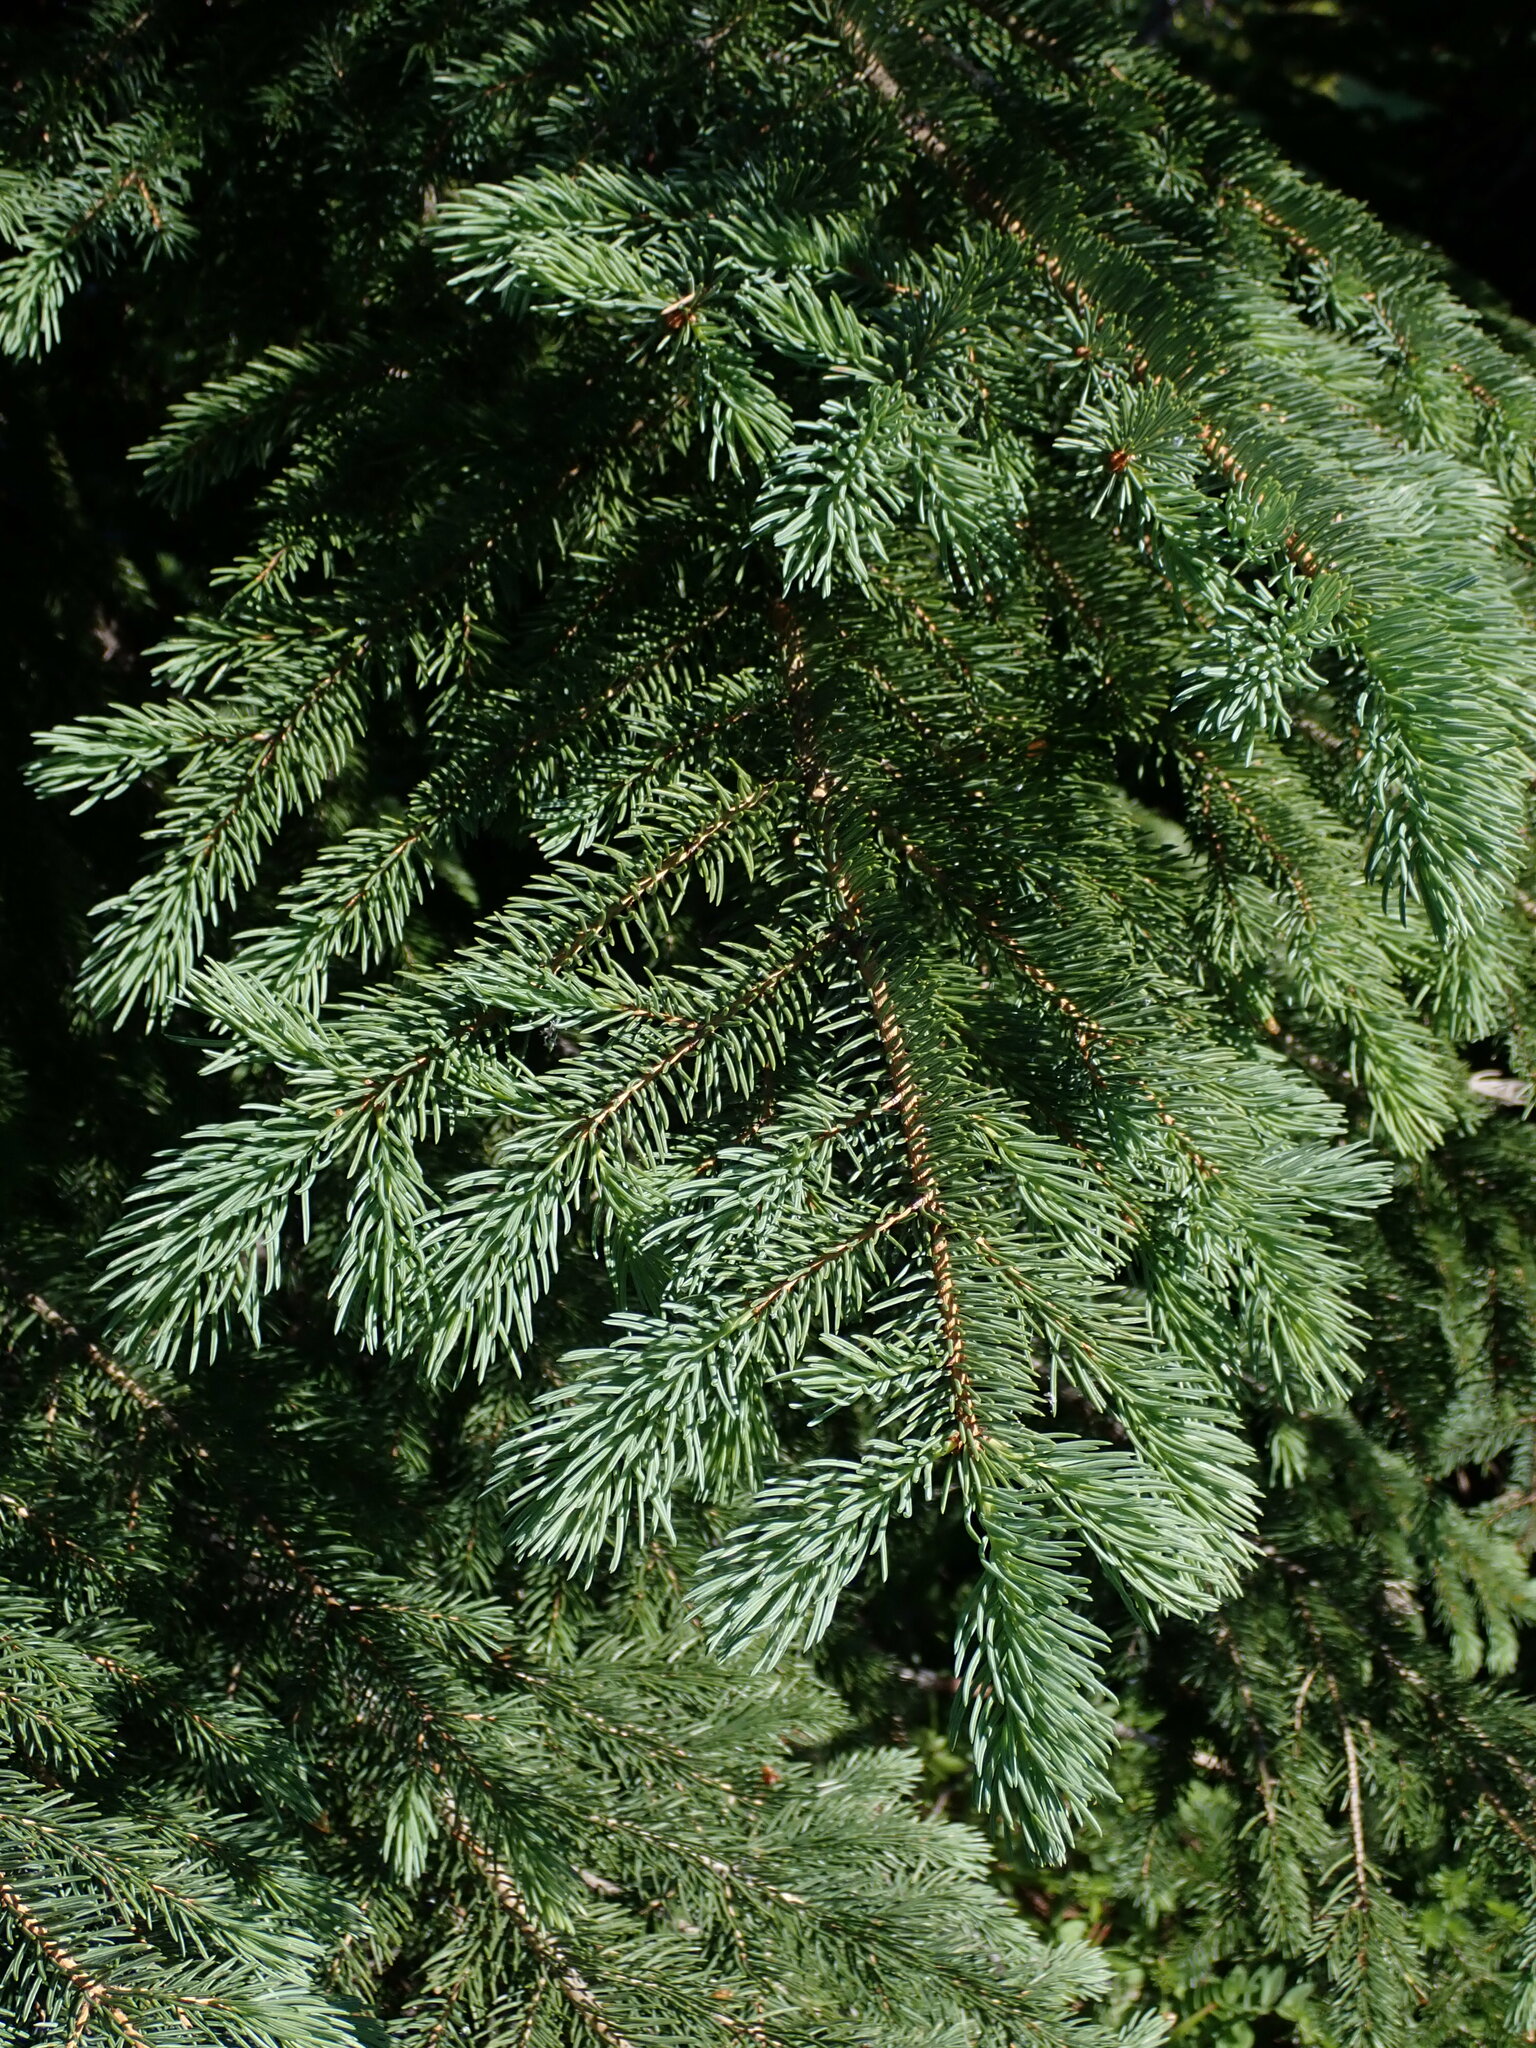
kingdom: Plantae
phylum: Tracheophyta
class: Pinopsida
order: Pinales
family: Pinaceae
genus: Picea
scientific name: Picea engelmannii
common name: Engelmann spruce
